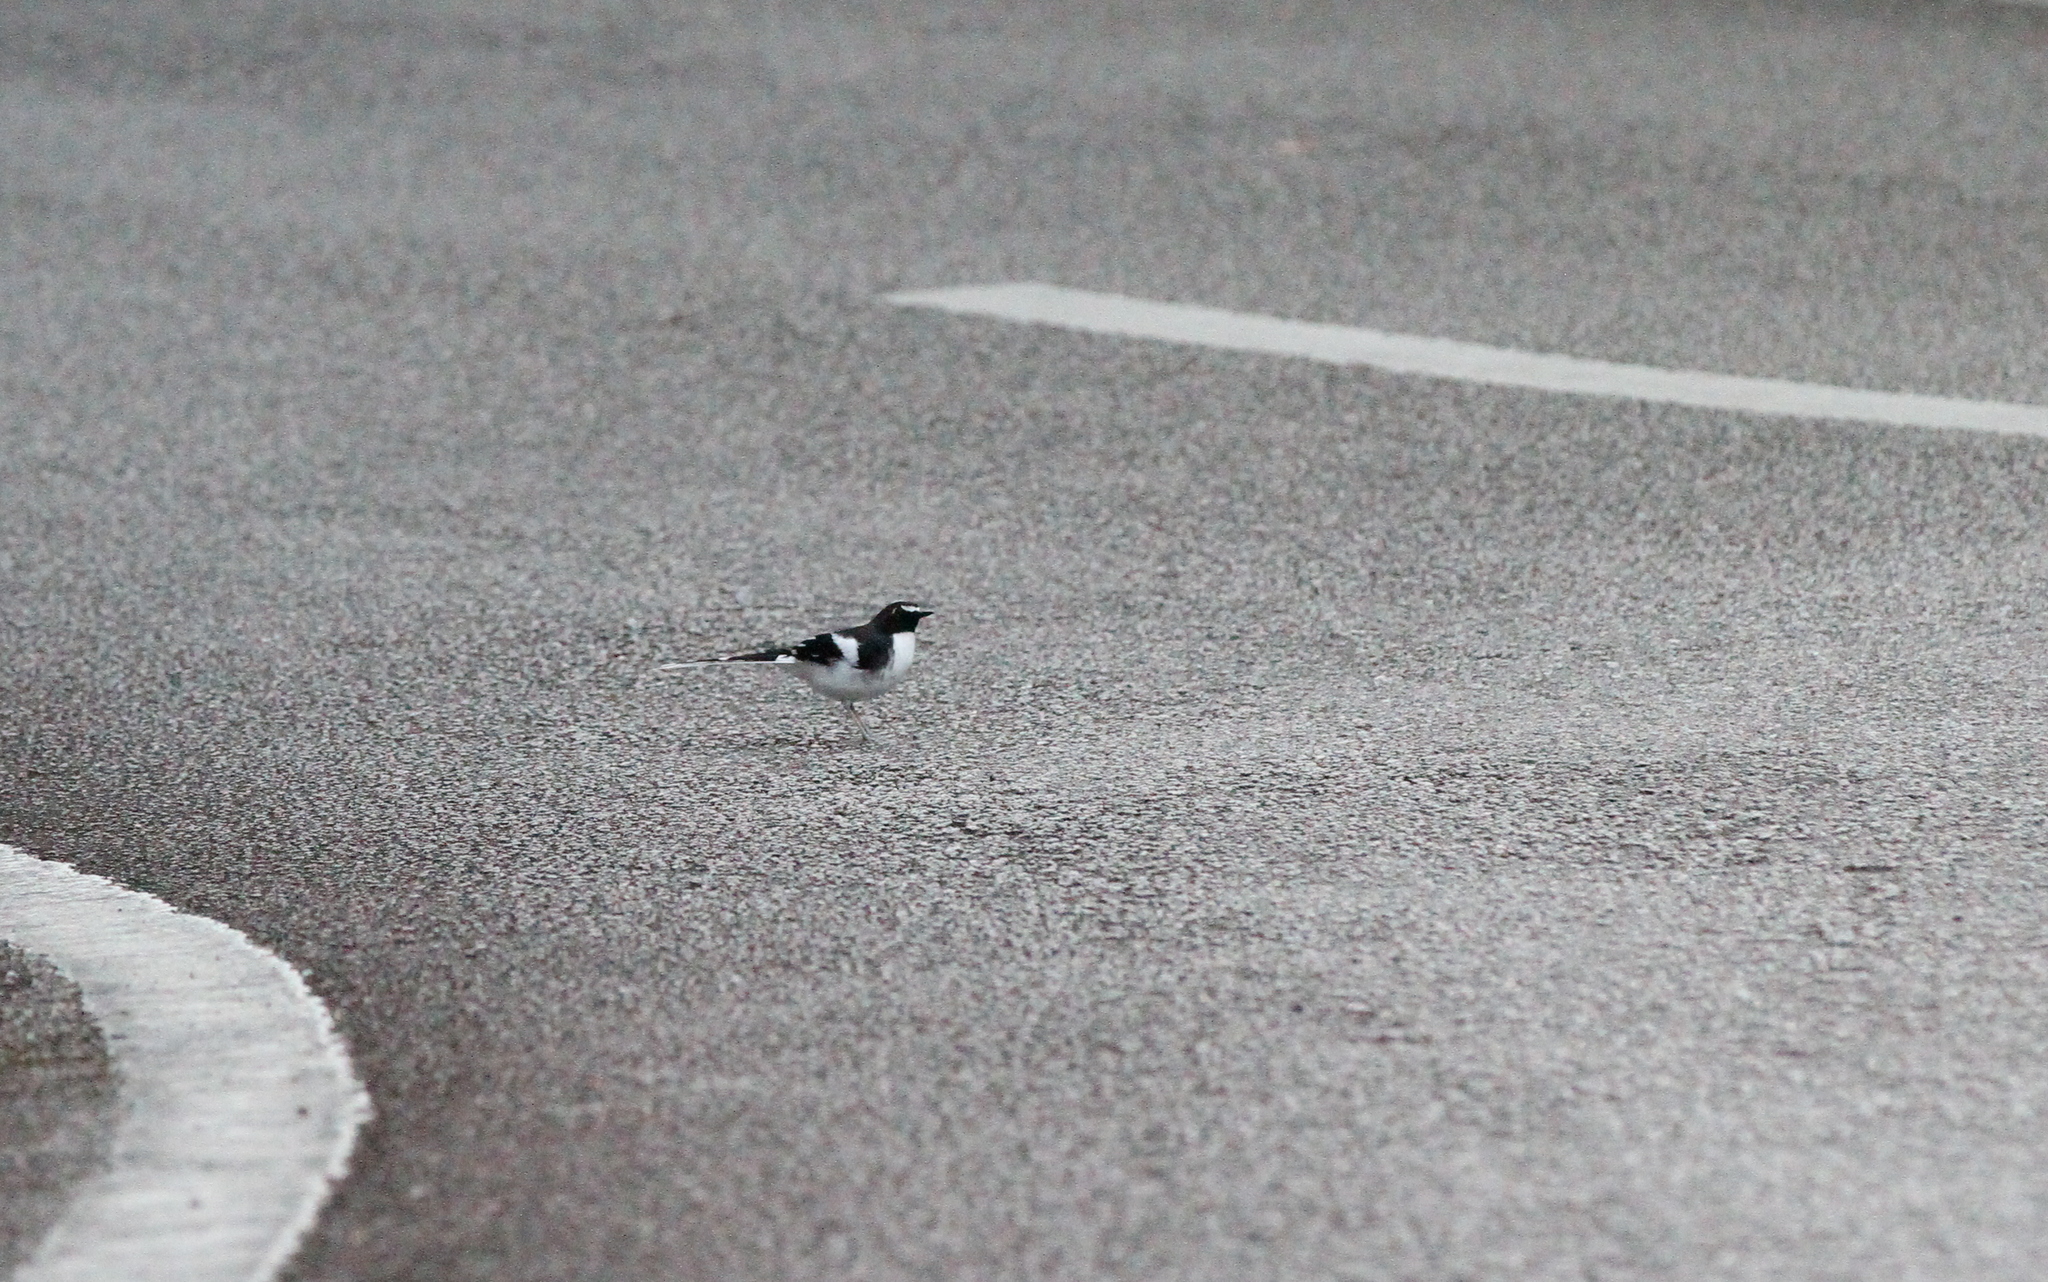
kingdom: Animalia
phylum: Chordata
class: Aves
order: Passeriformes
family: Muscicapidae
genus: Enicurus
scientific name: Enicurus schistaceus
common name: Slaty-backed forktail
